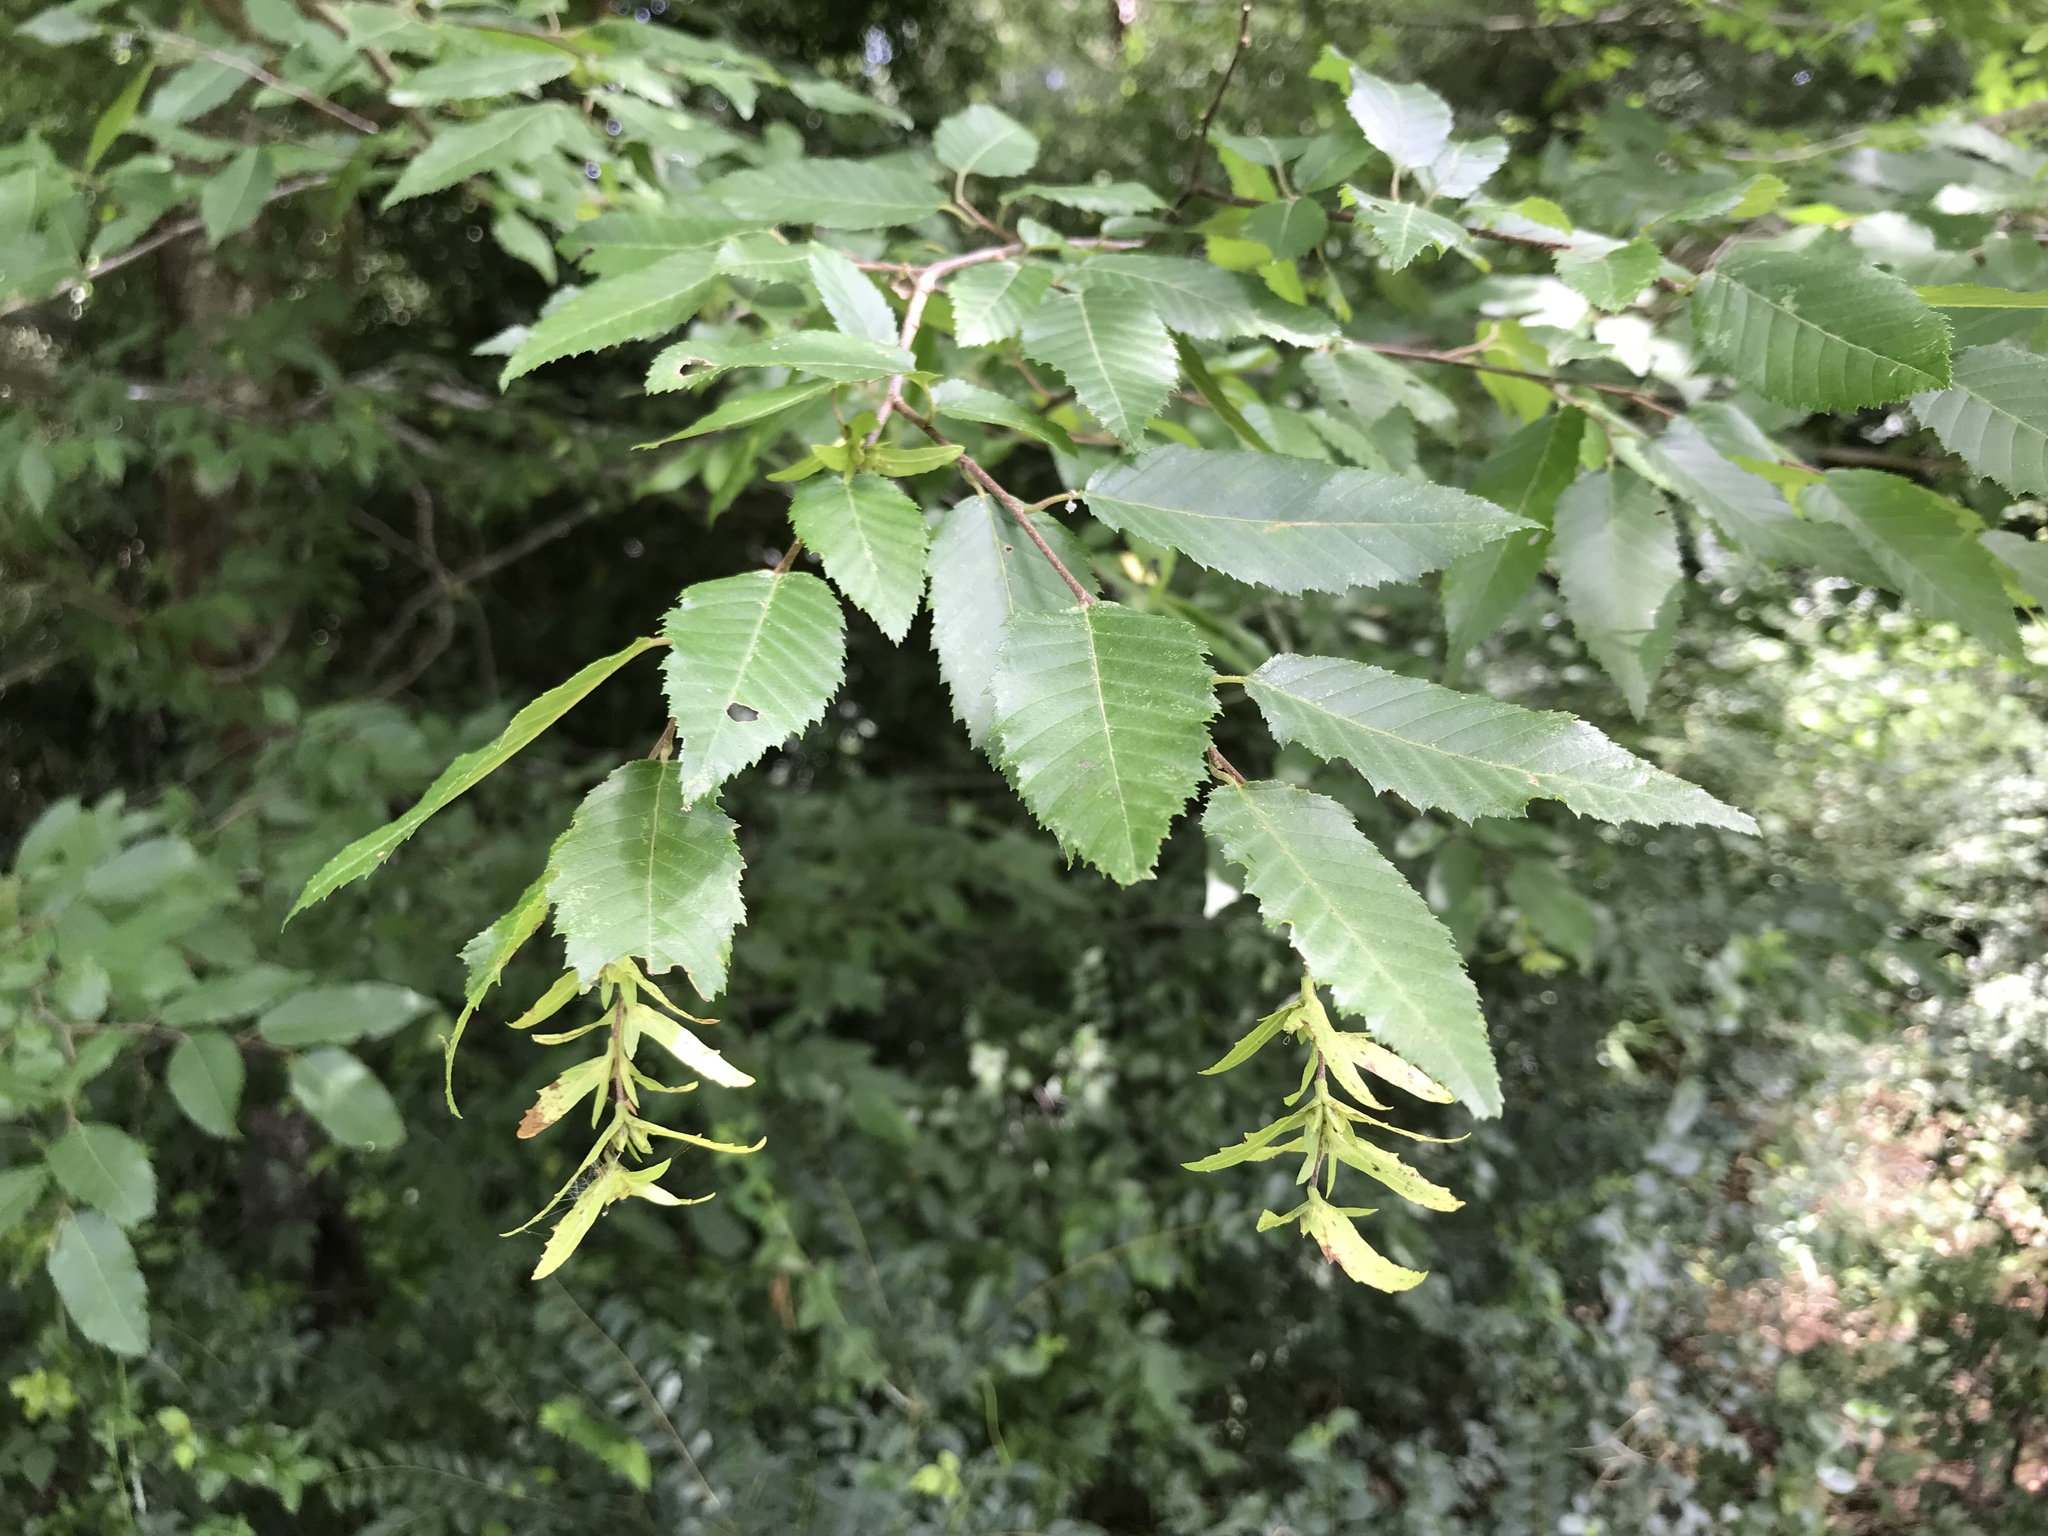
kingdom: Plantae
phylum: Tracheophyta
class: Magnoliopsida
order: Fagales
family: Betulaceae
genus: Carpinus
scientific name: Carpinus caroliniana
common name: American hornbeam
